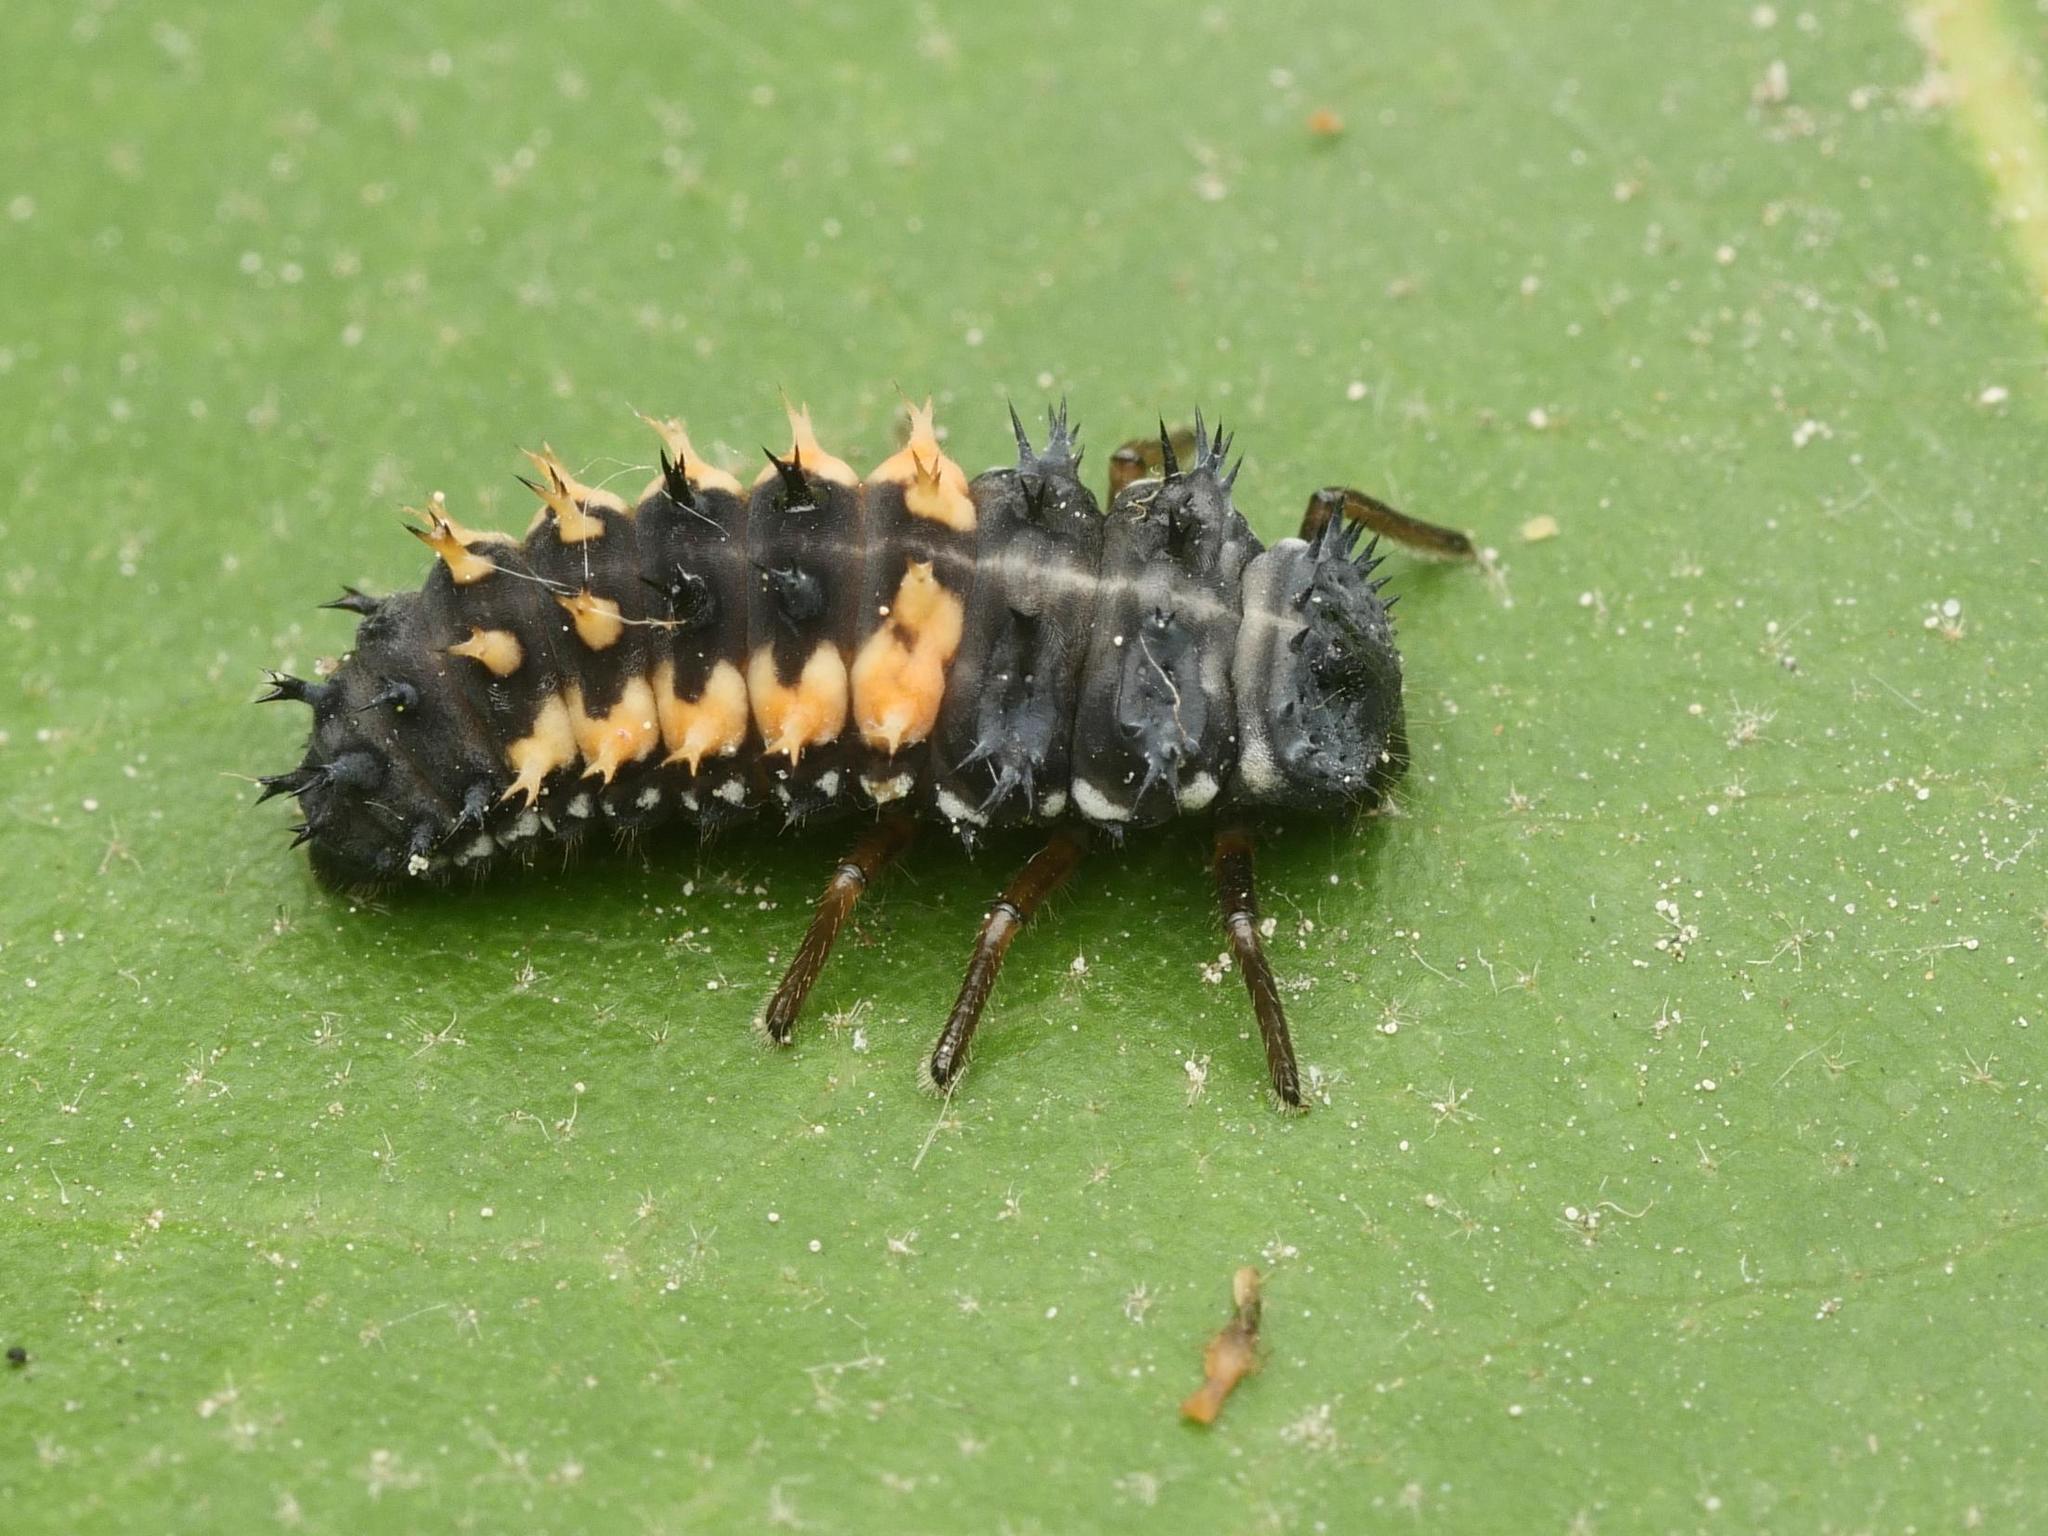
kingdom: Animalia
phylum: Arthropoda
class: Insecta
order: Coleoptera
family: Coccinellidae
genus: Harmonia
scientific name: Harmonia axyridis
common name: Harlequin ladybird
